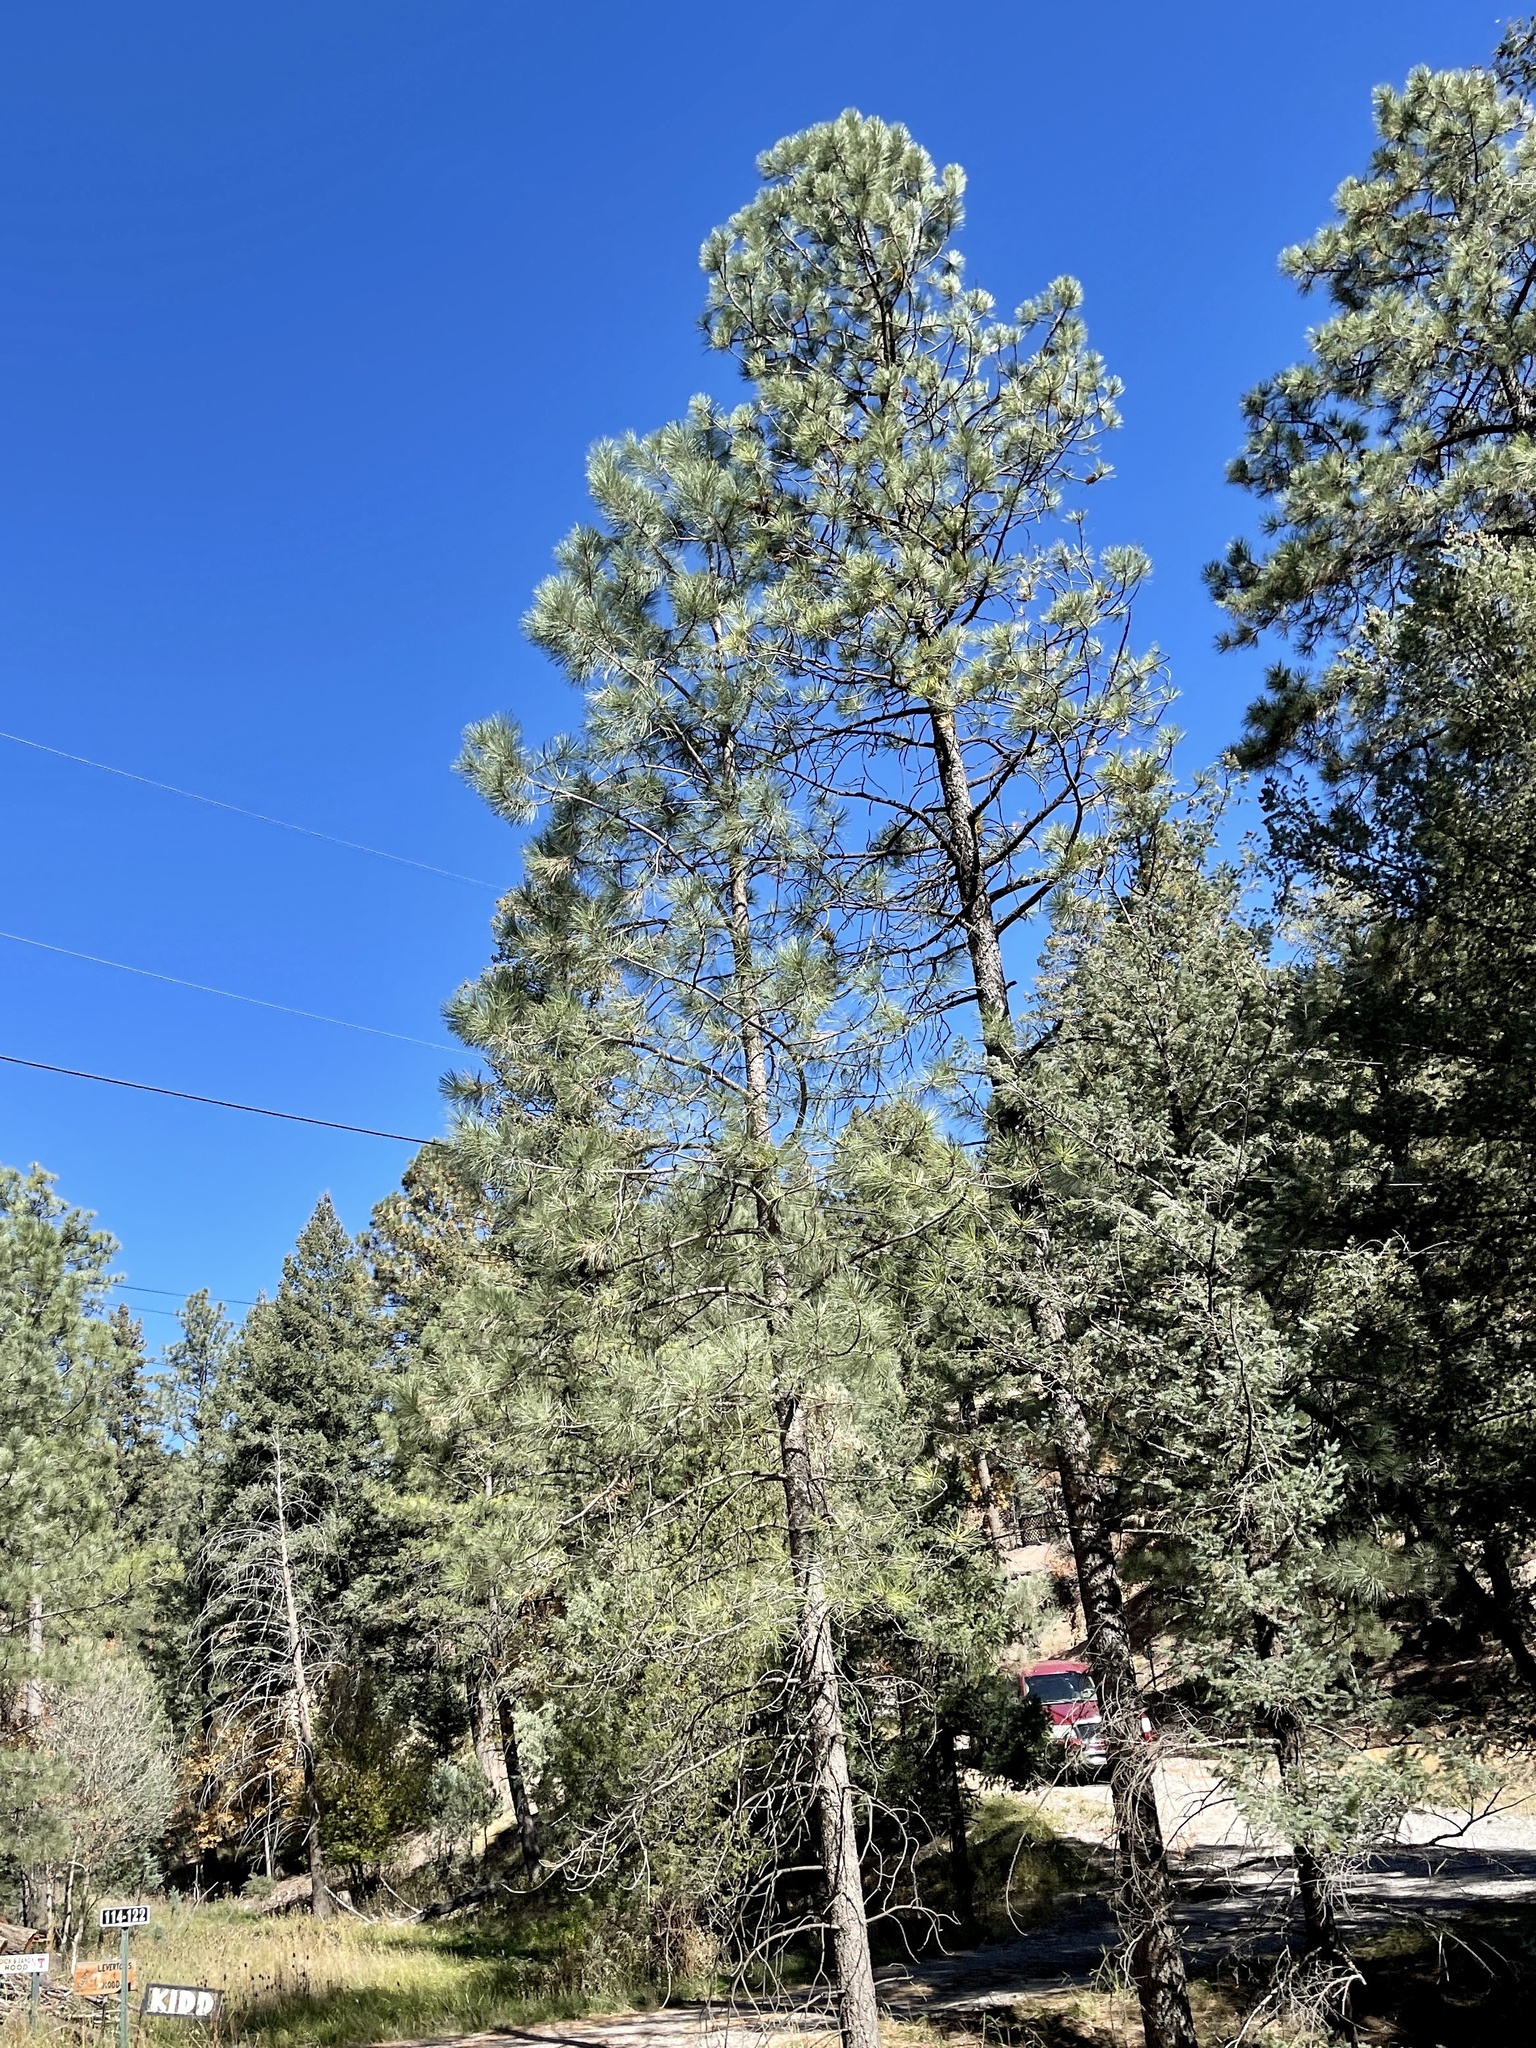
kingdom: Plantae
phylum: Tracheophyta
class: Pinopsida
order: Pinales
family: Pinaceae
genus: Pinus
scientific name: Pinus ponderosa
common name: Western yellow-pine
